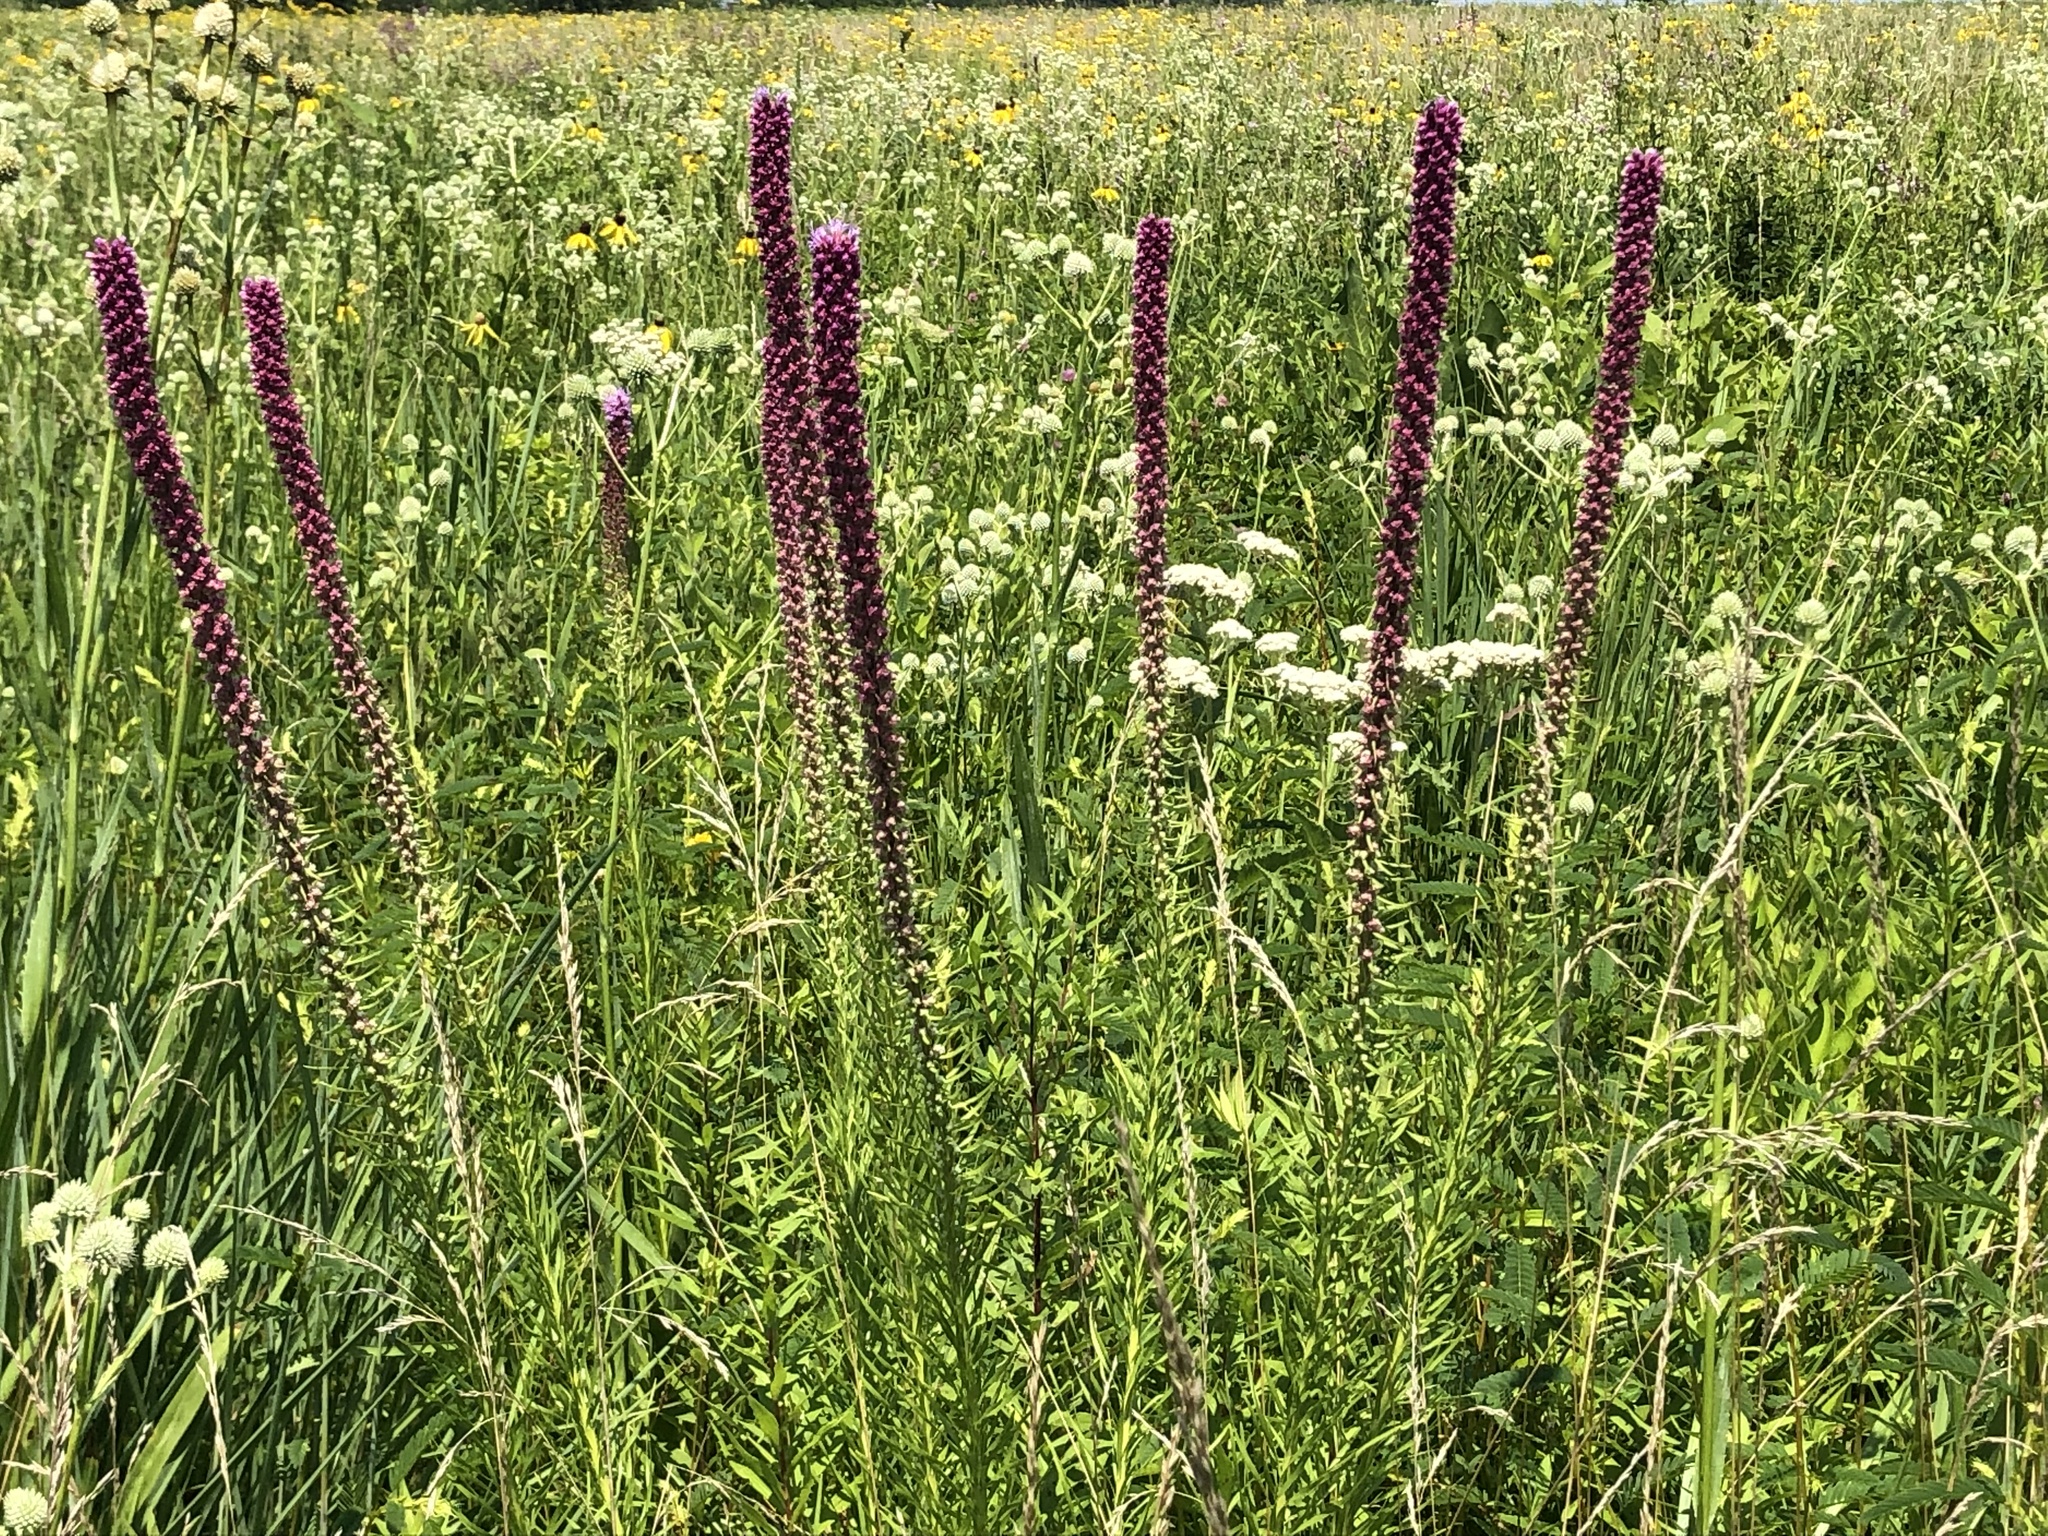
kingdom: Plantae
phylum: Tracheophyta
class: Magnoliopsida
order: Asterales
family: Asteraceae
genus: Liatris
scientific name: Liatris pycnostachya
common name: Cattail gayfeather
